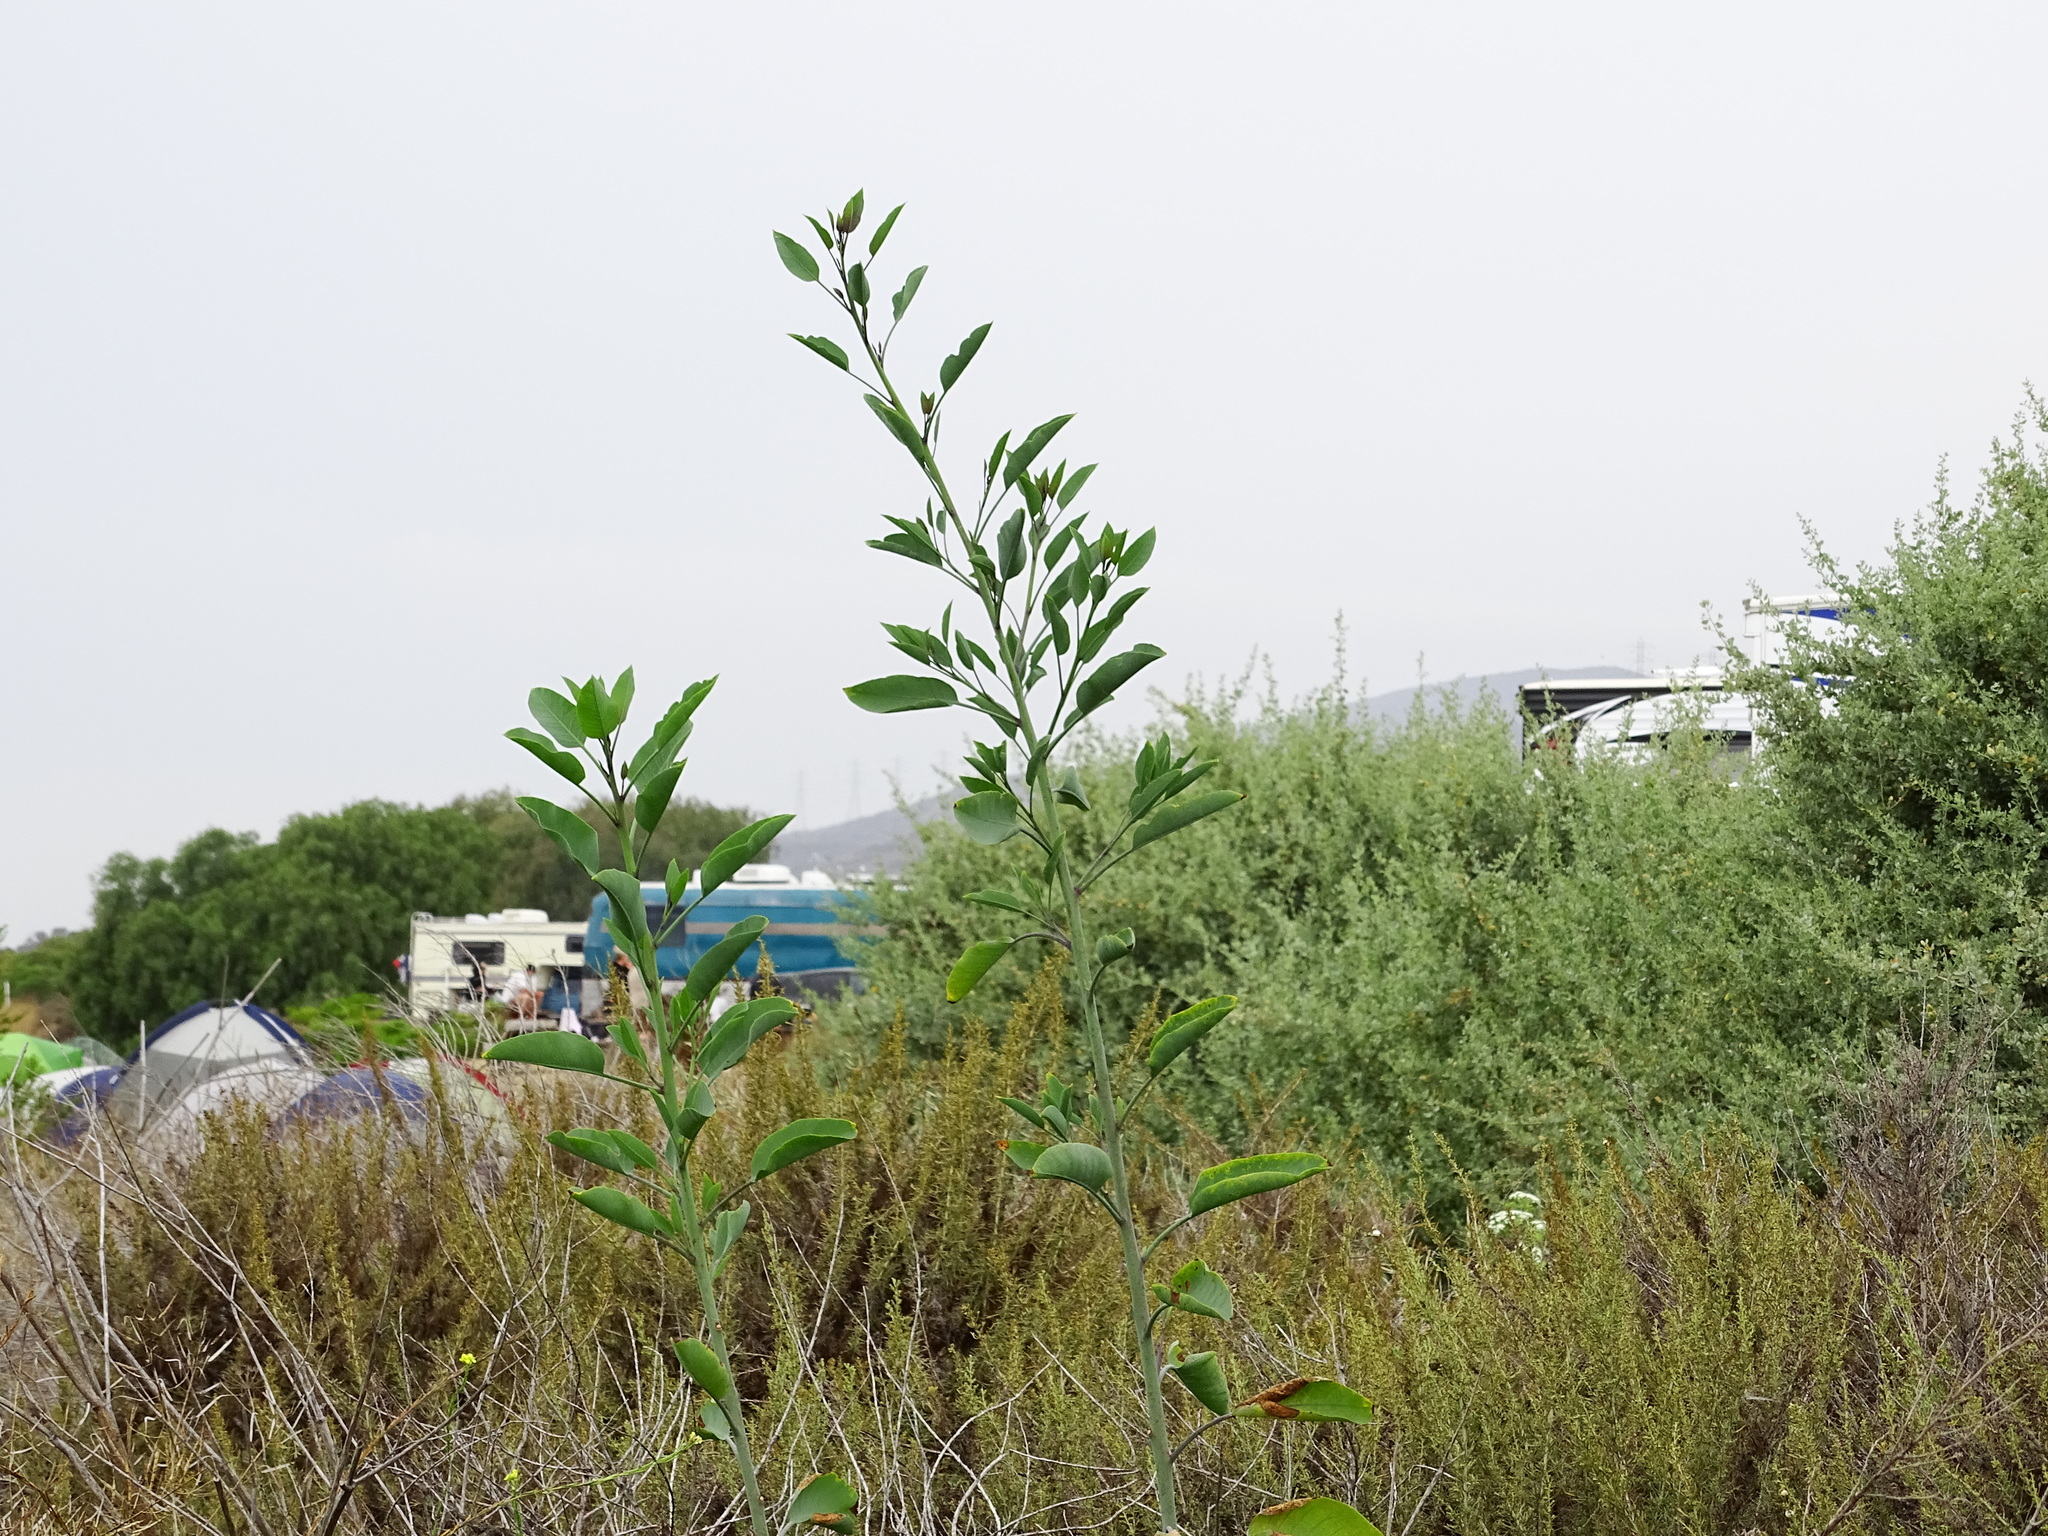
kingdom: Plantae
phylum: Tracheophyta
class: Magnoliopsida
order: Solanales
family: Solanaceae
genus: Nicotiana
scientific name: Nicotiana glauca
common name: Tree tobacco
